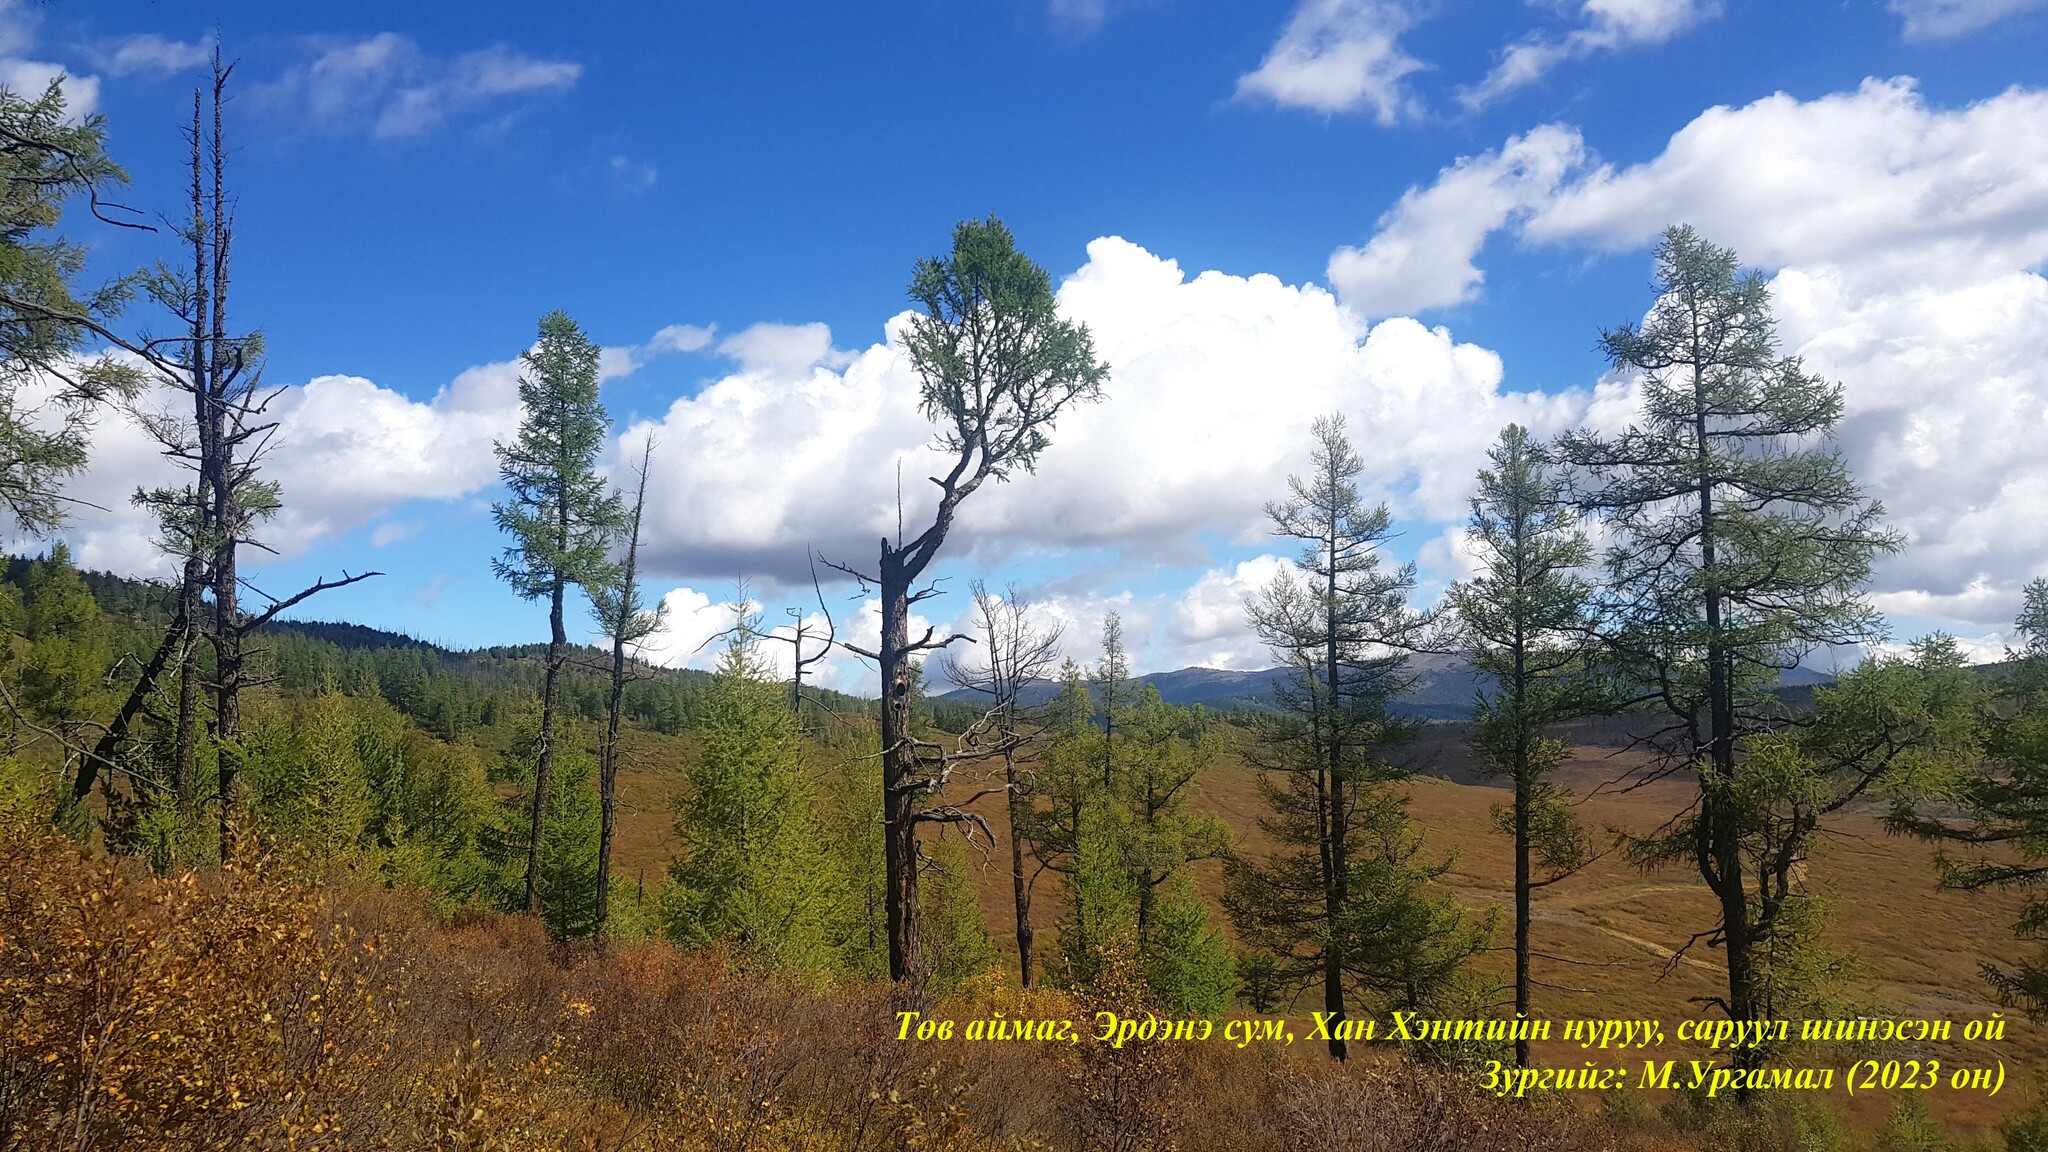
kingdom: Plantae
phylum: Tracheophyta
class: Pinopsida
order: Pinales
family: Pinaceae
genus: Larix
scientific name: Larix sibirica
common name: Siberian larch
